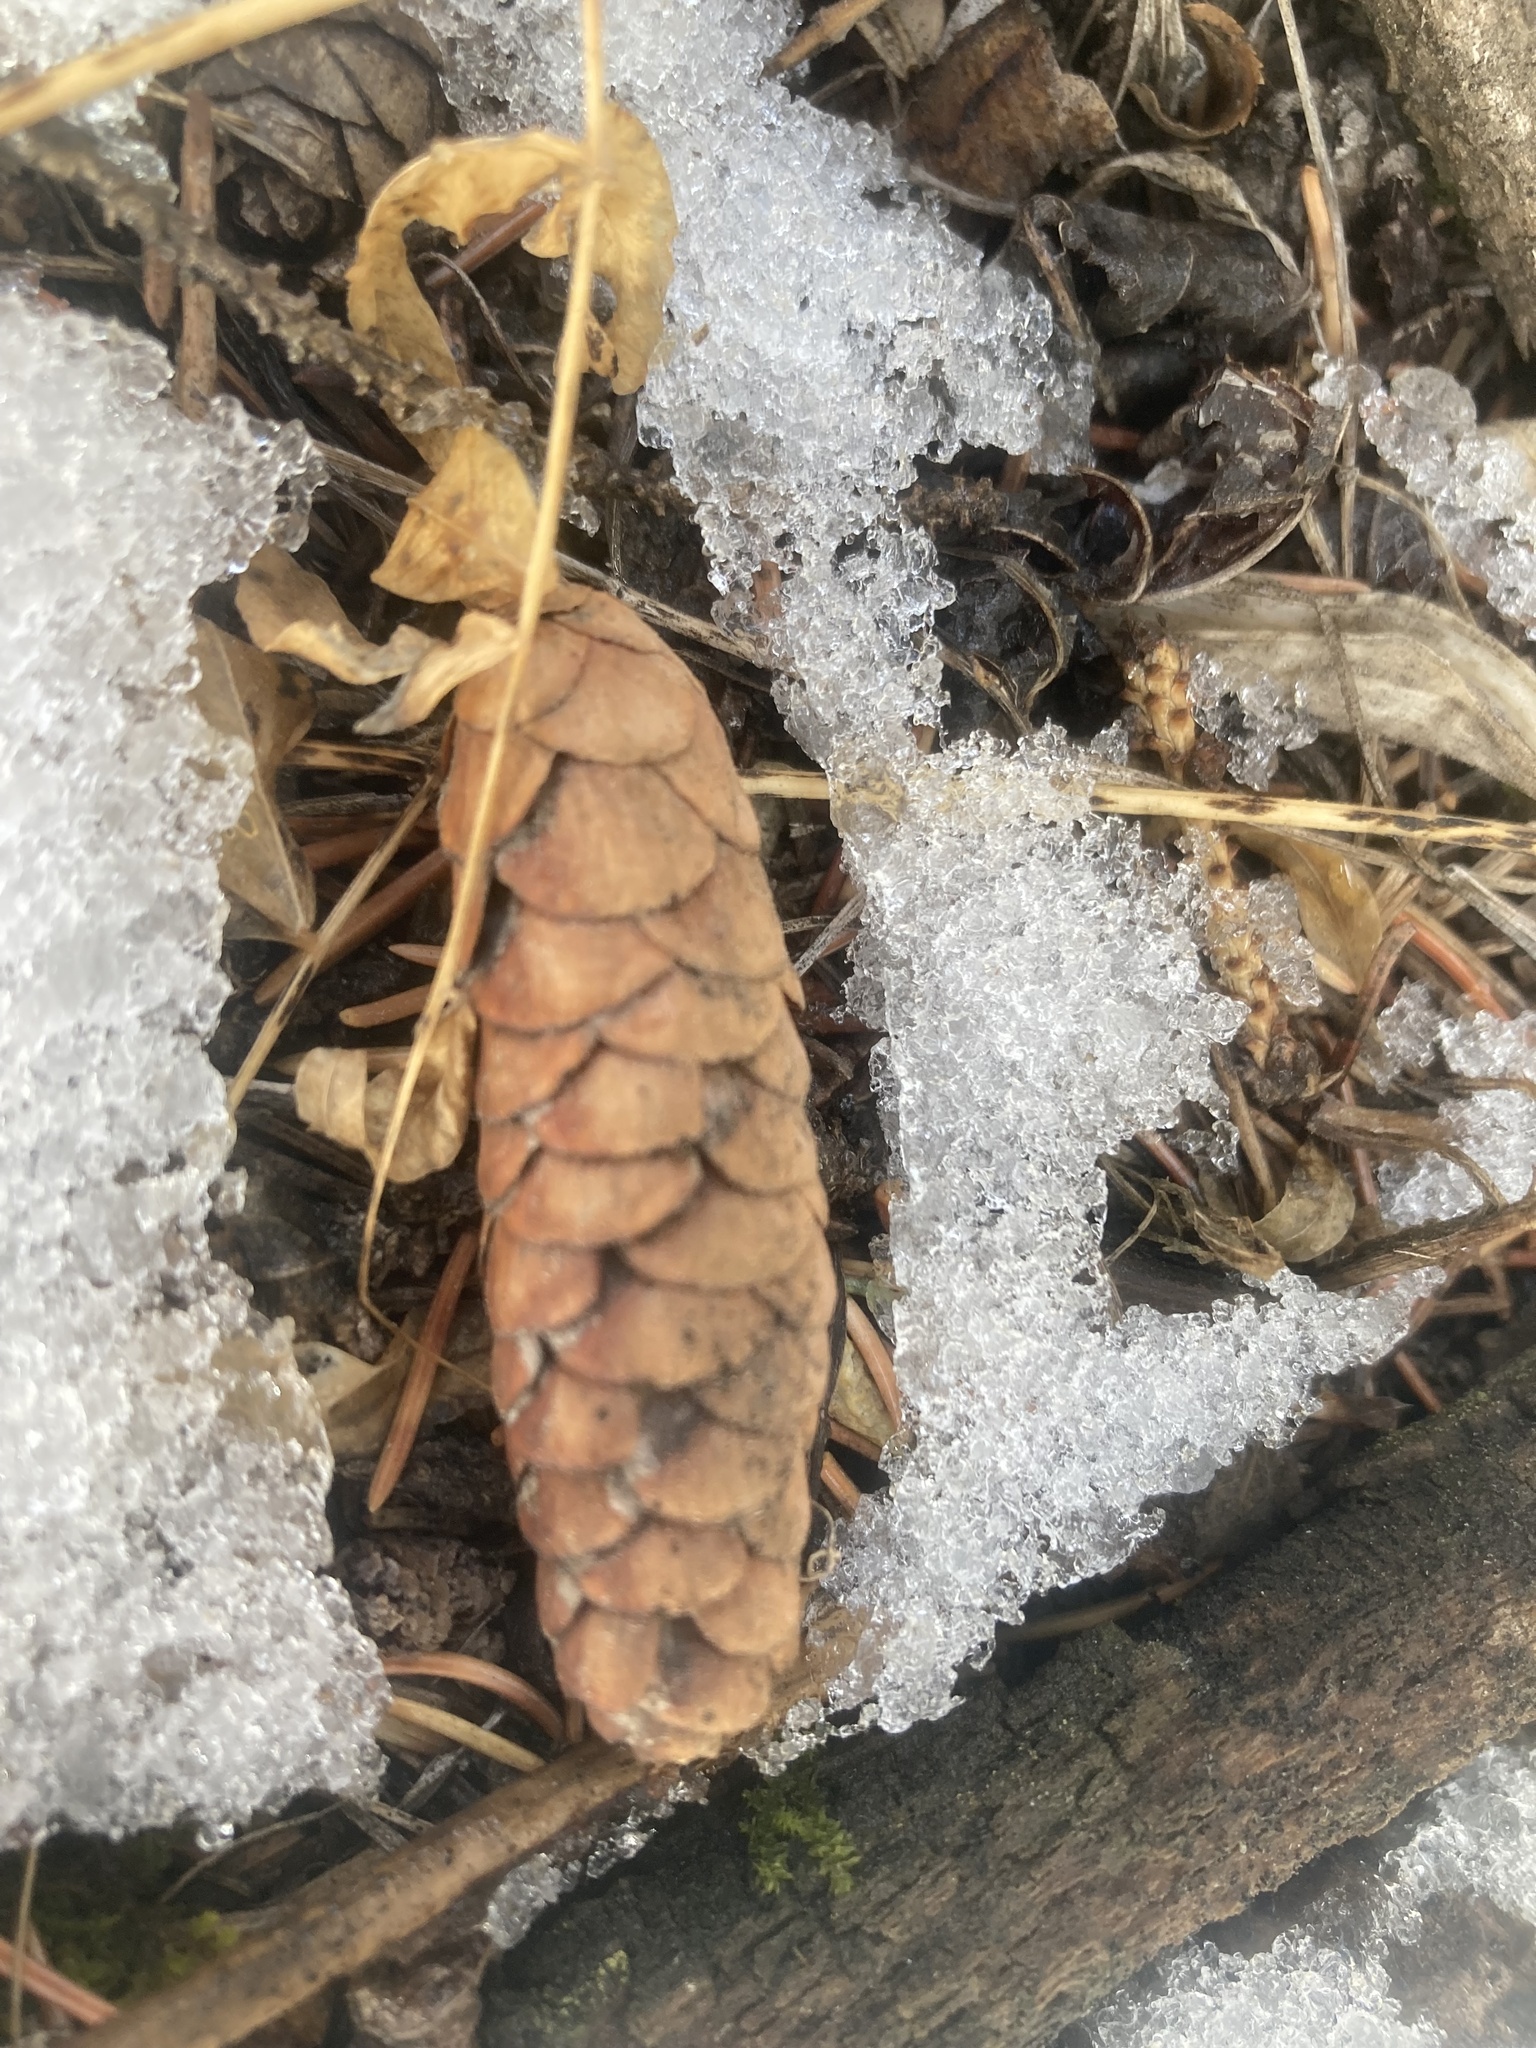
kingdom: Plantae
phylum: Tracheophyta
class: Pinopsida
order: Pinales
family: Pinaceae
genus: Picea
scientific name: Picea glauca
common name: White spruce
